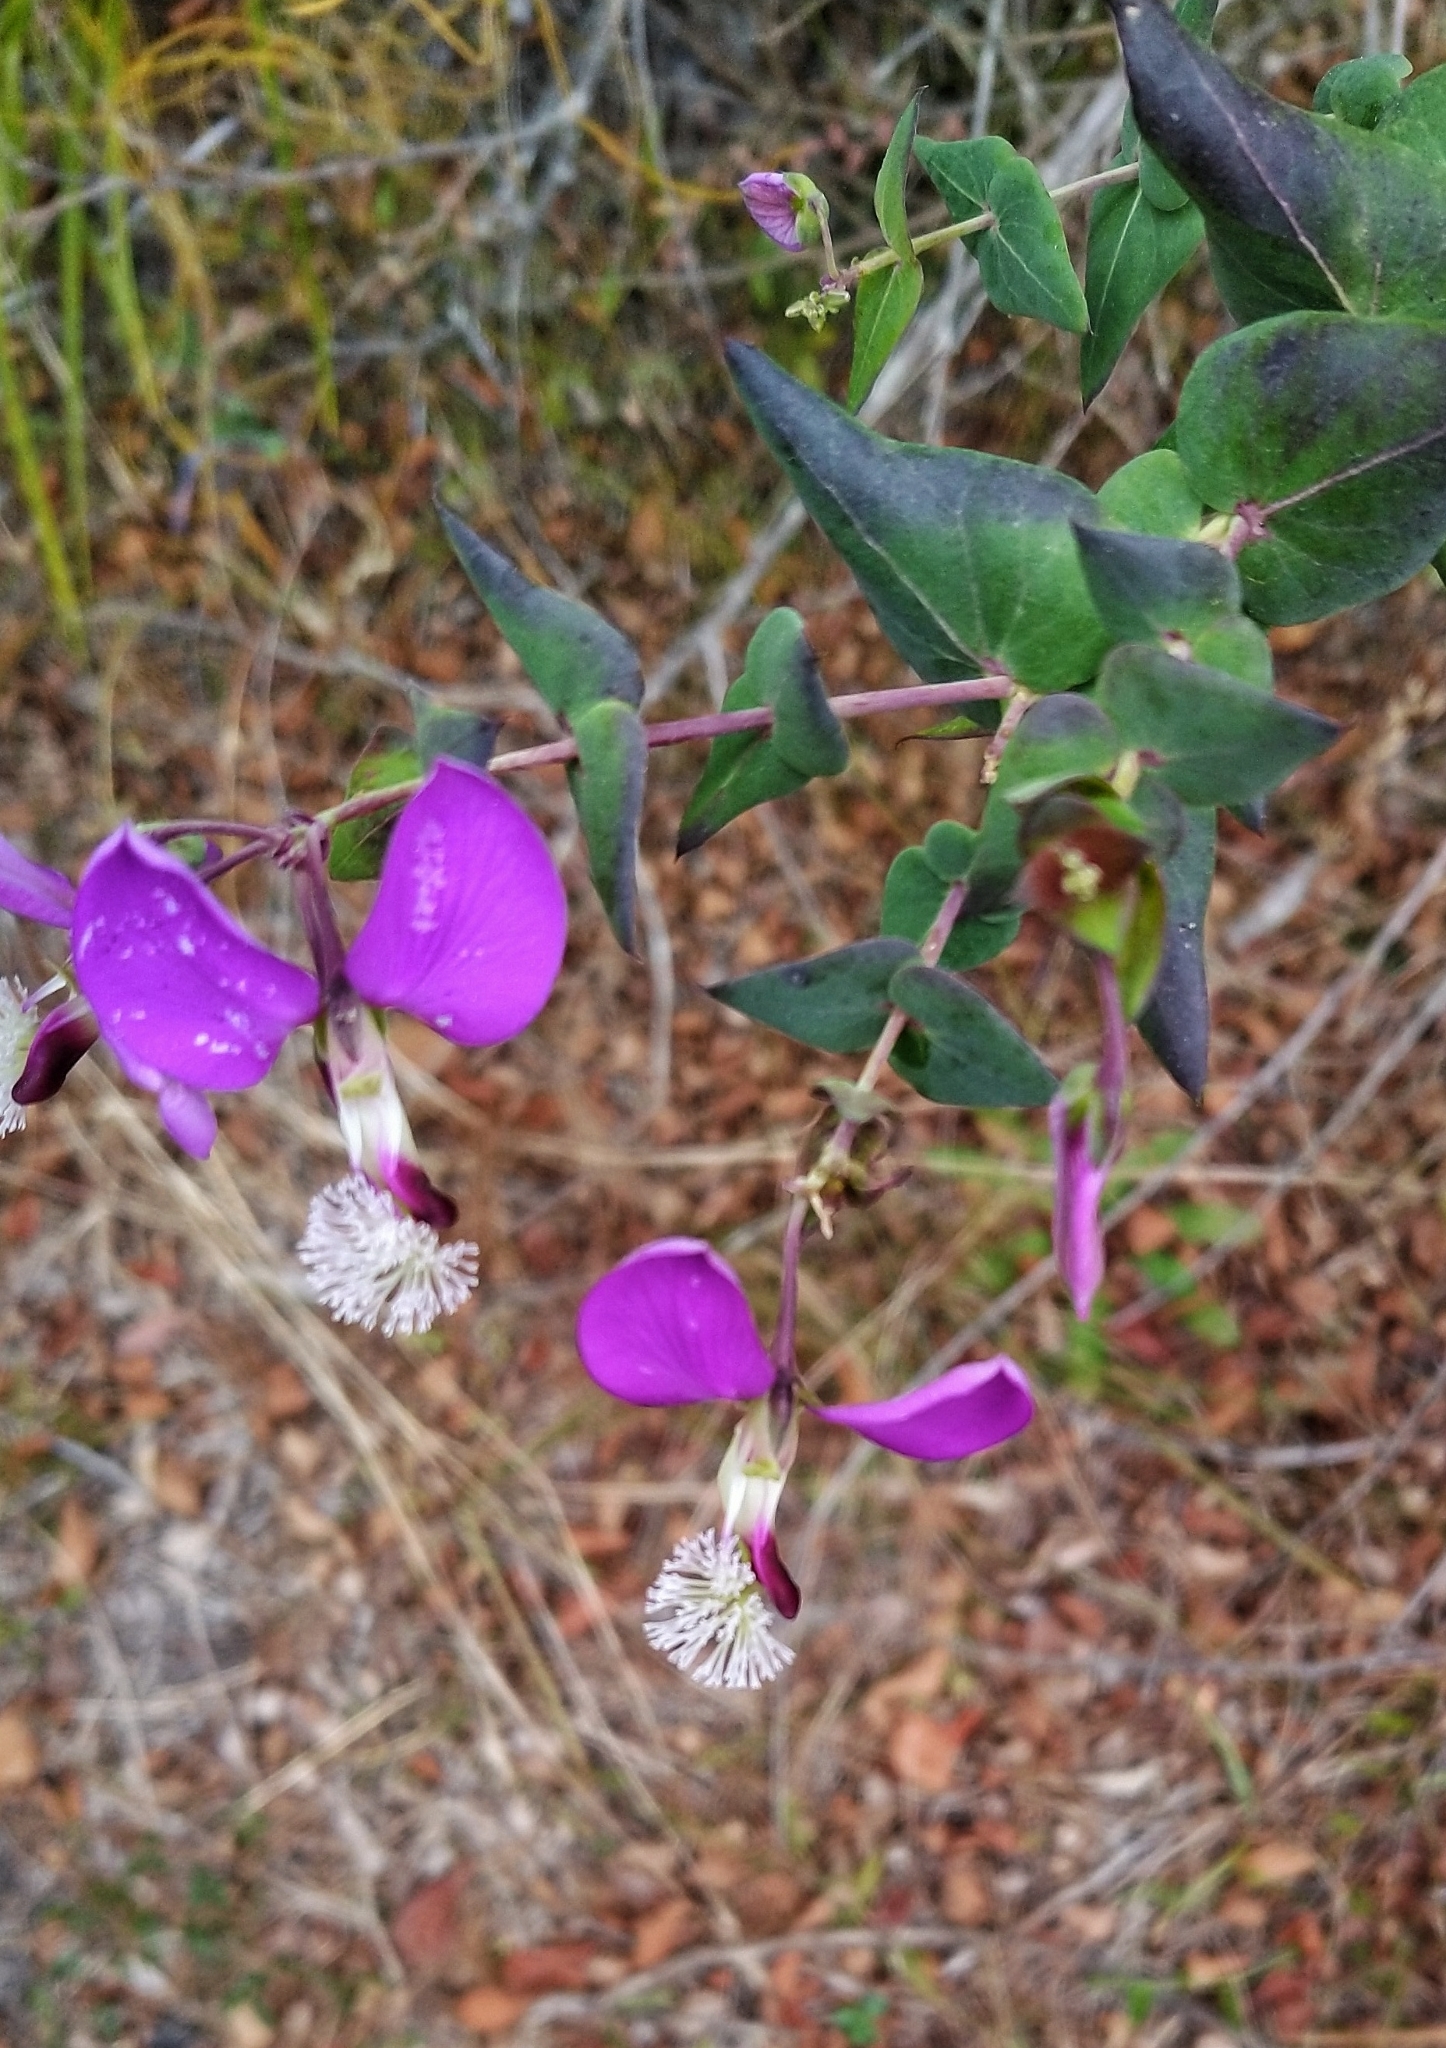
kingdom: Plantae
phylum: Tracheophyta
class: Magnoliopsida
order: Fabales
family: Polygalaceae
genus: Polygala
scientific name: Polygala fruticosa
